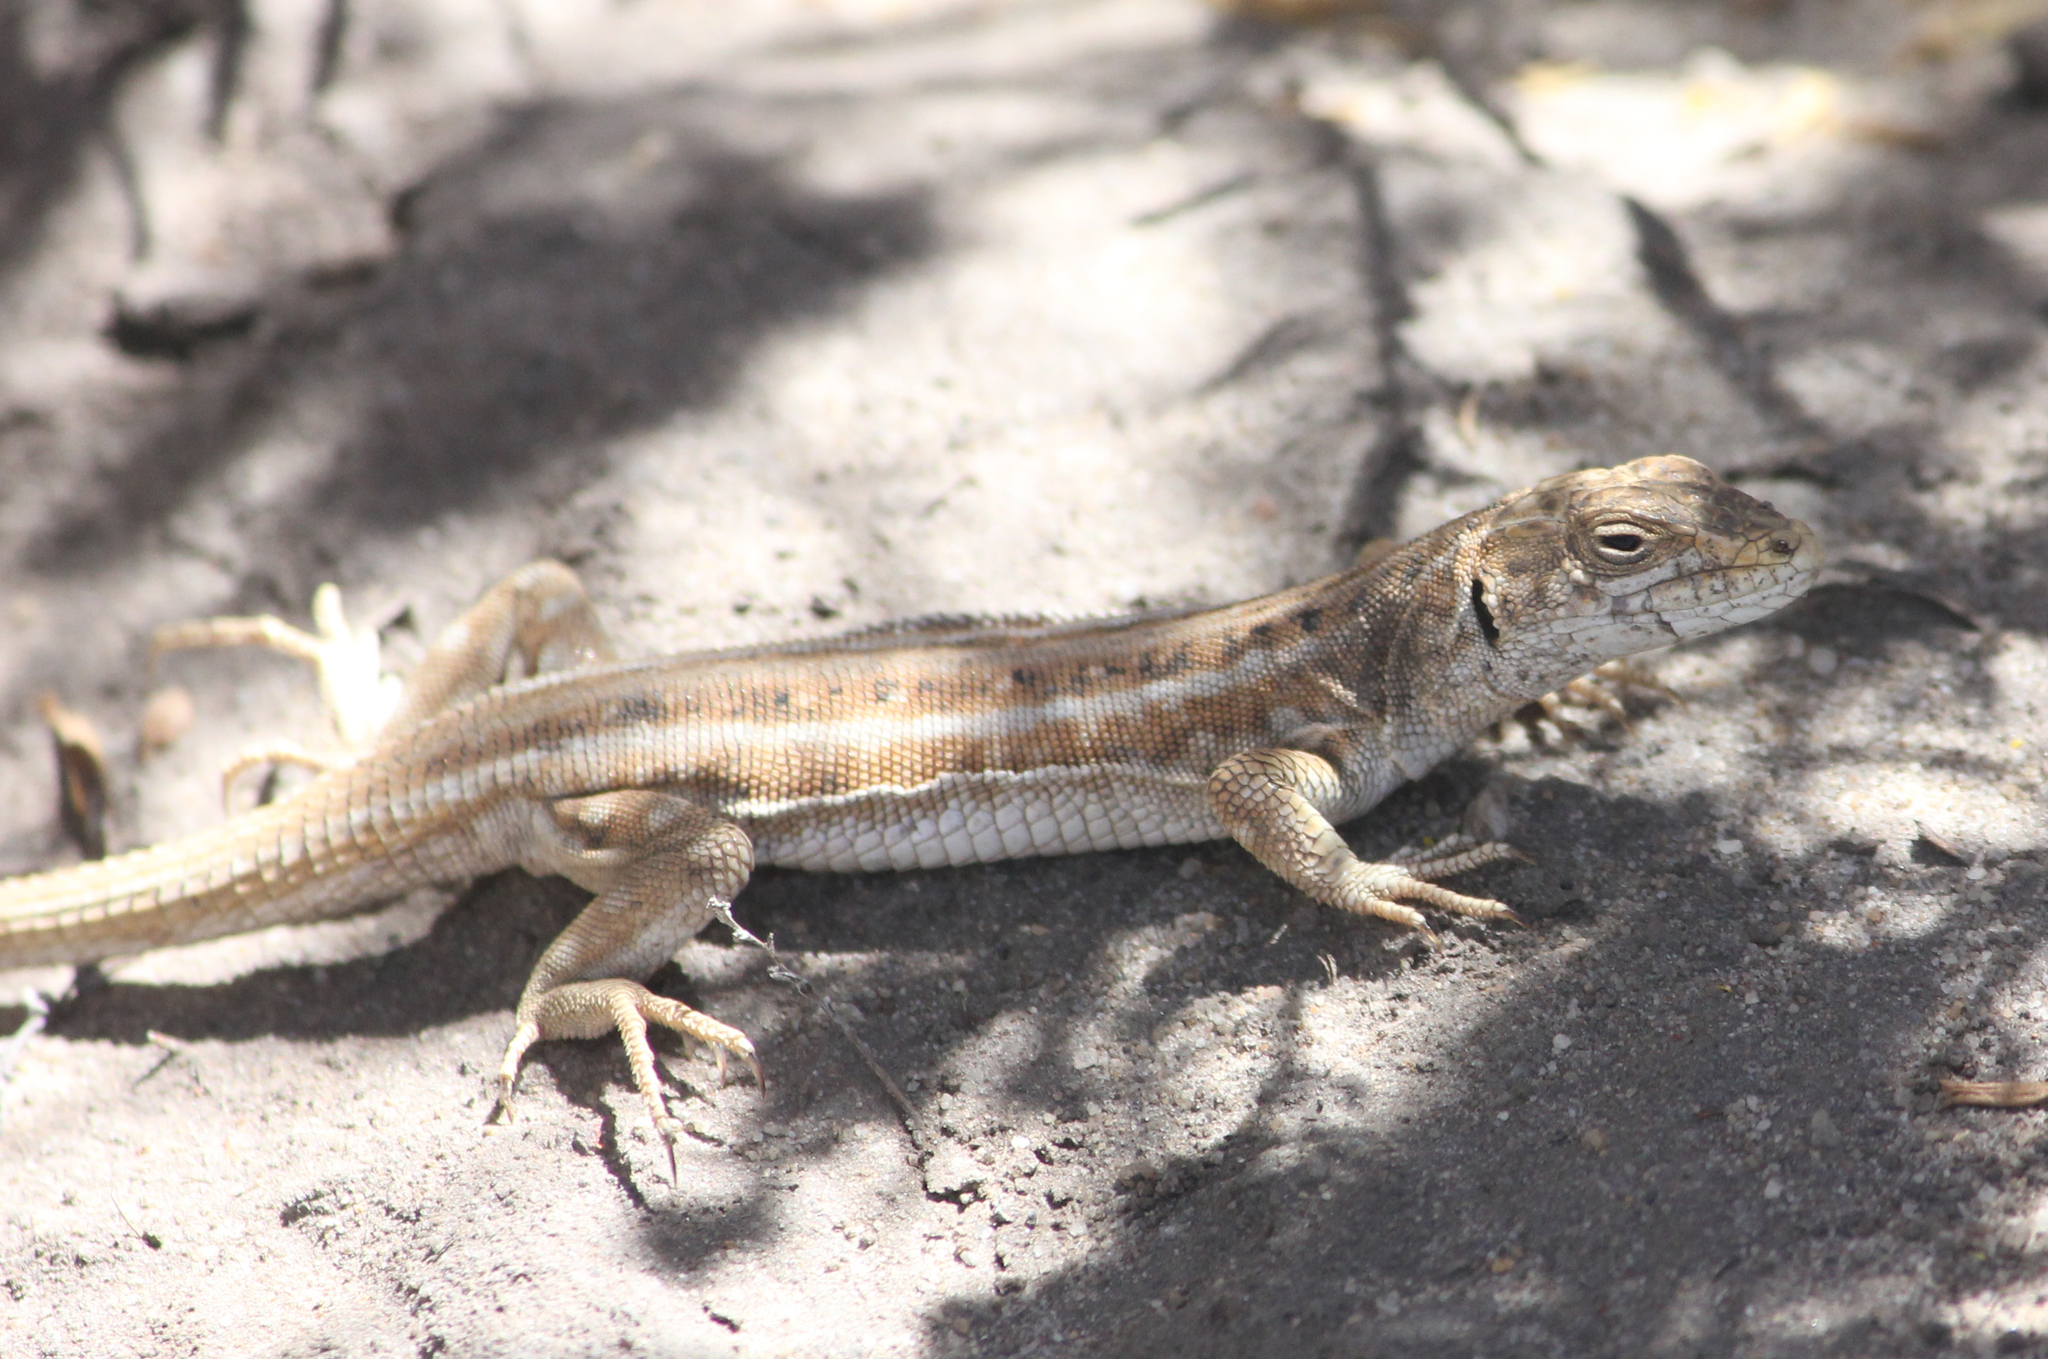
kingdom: Animalia
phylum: Chordata
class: Squamata
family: Lacertidae
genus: Meroles
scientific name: Meroles knoxii
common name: Knox's desert lizard
